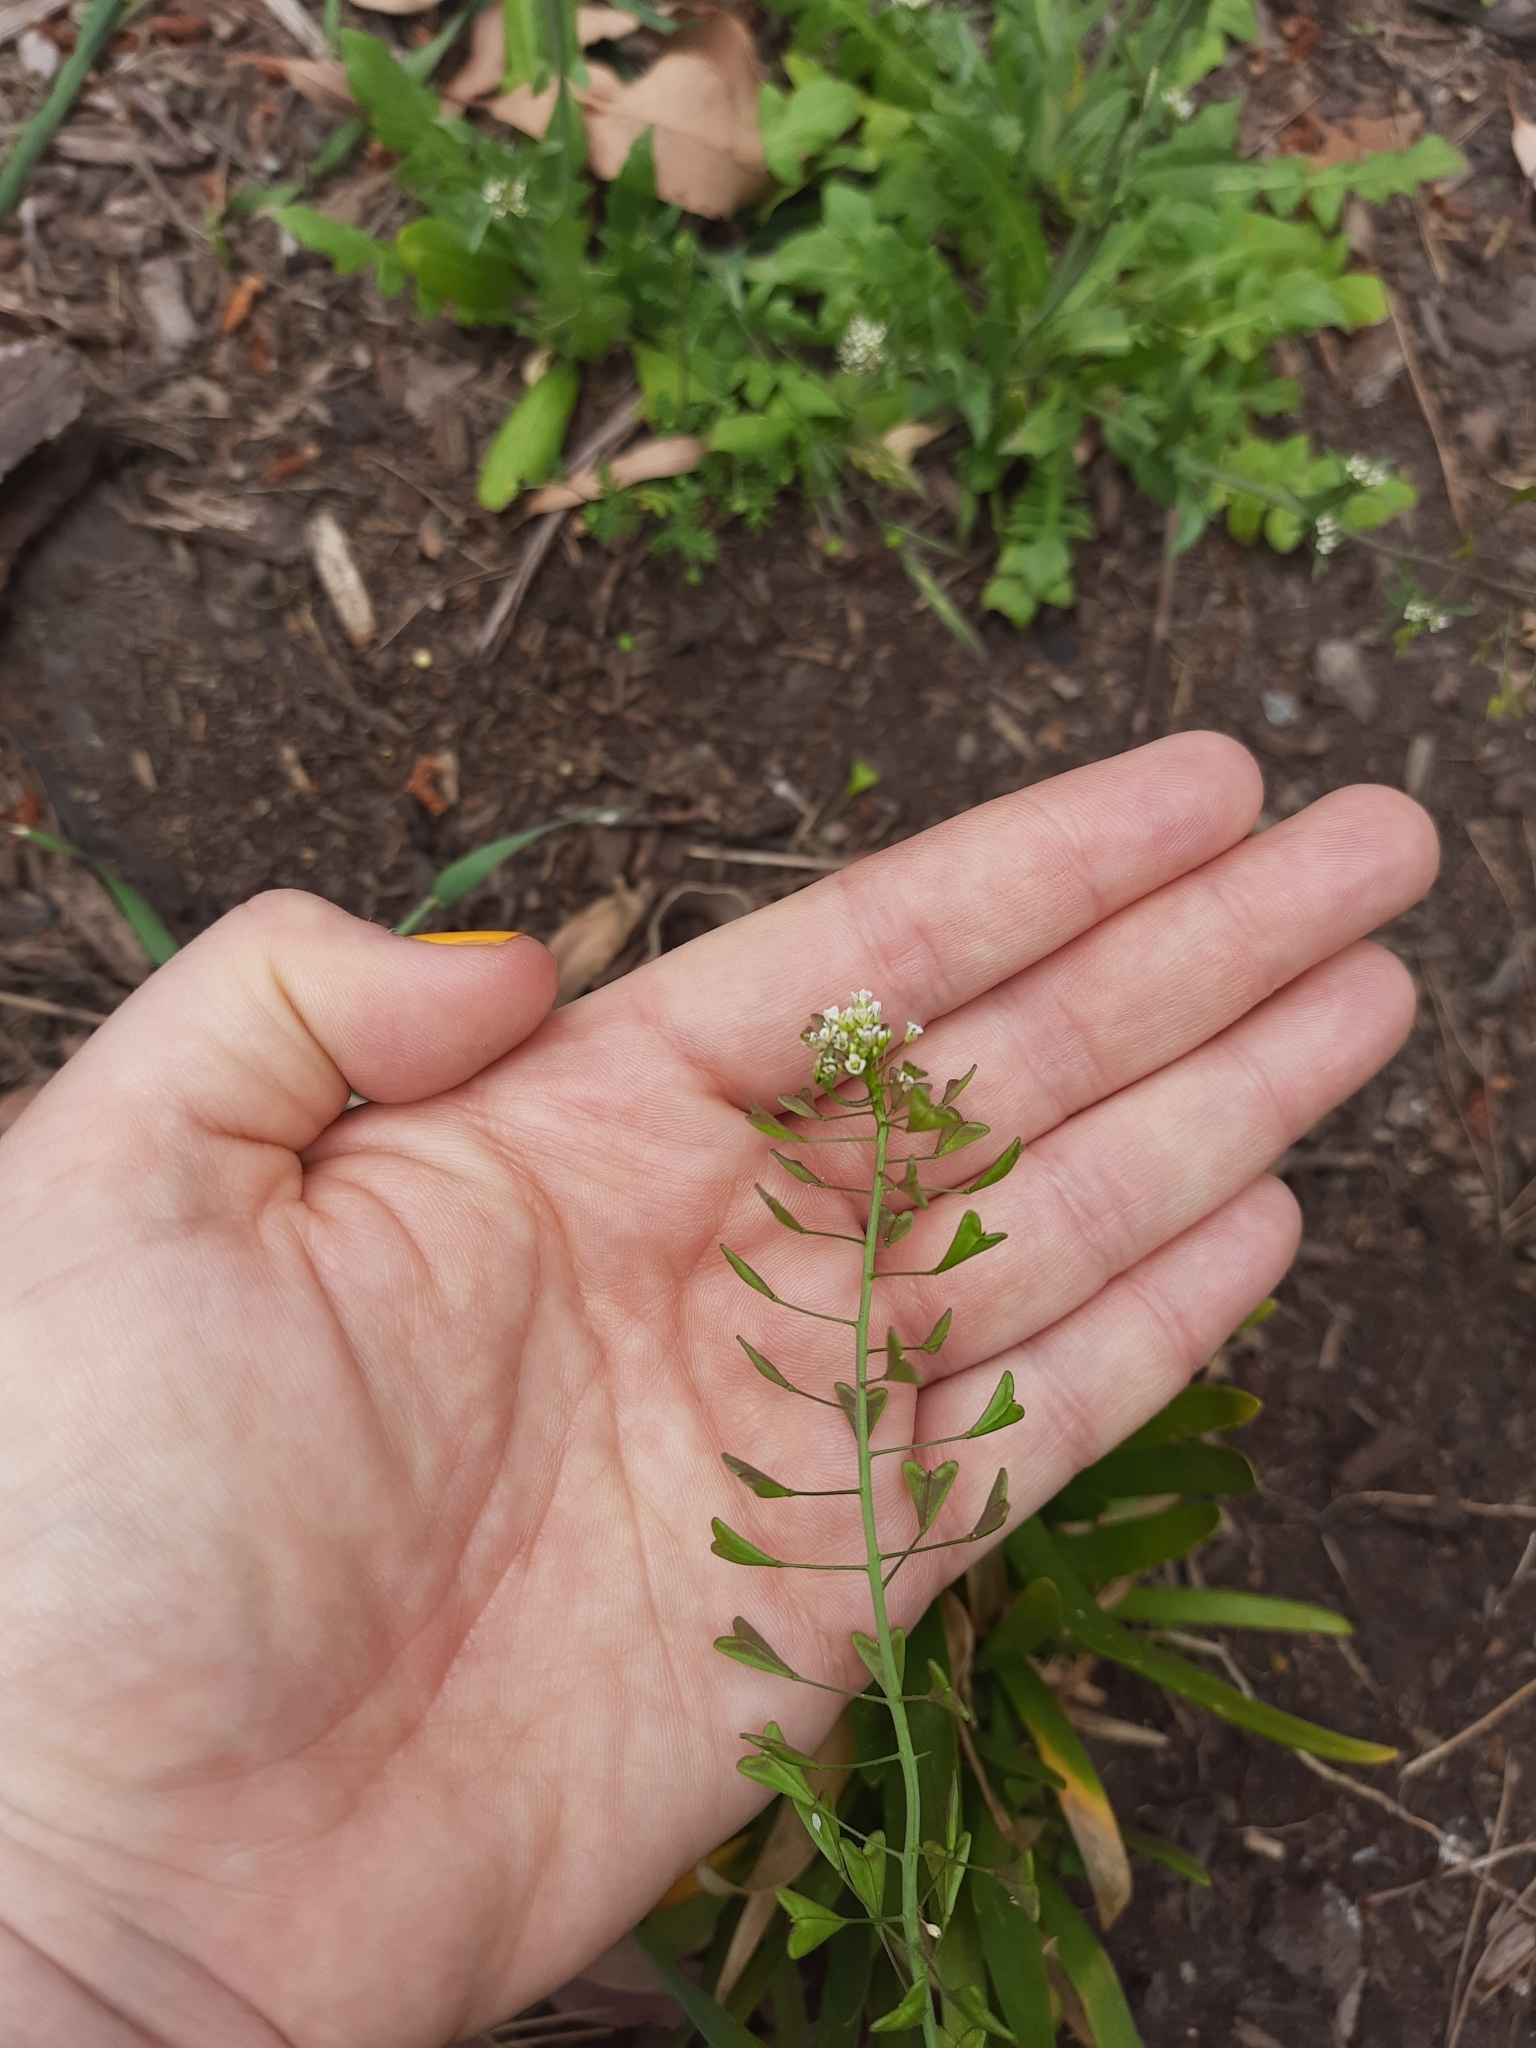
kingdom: Plantae
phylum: Tracheophyta
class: Magnoliopsida
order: Brassicales
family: Brassicaceae
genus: Capsella
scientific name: Capsella bursa-pastoris
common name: Shepherd's purse
